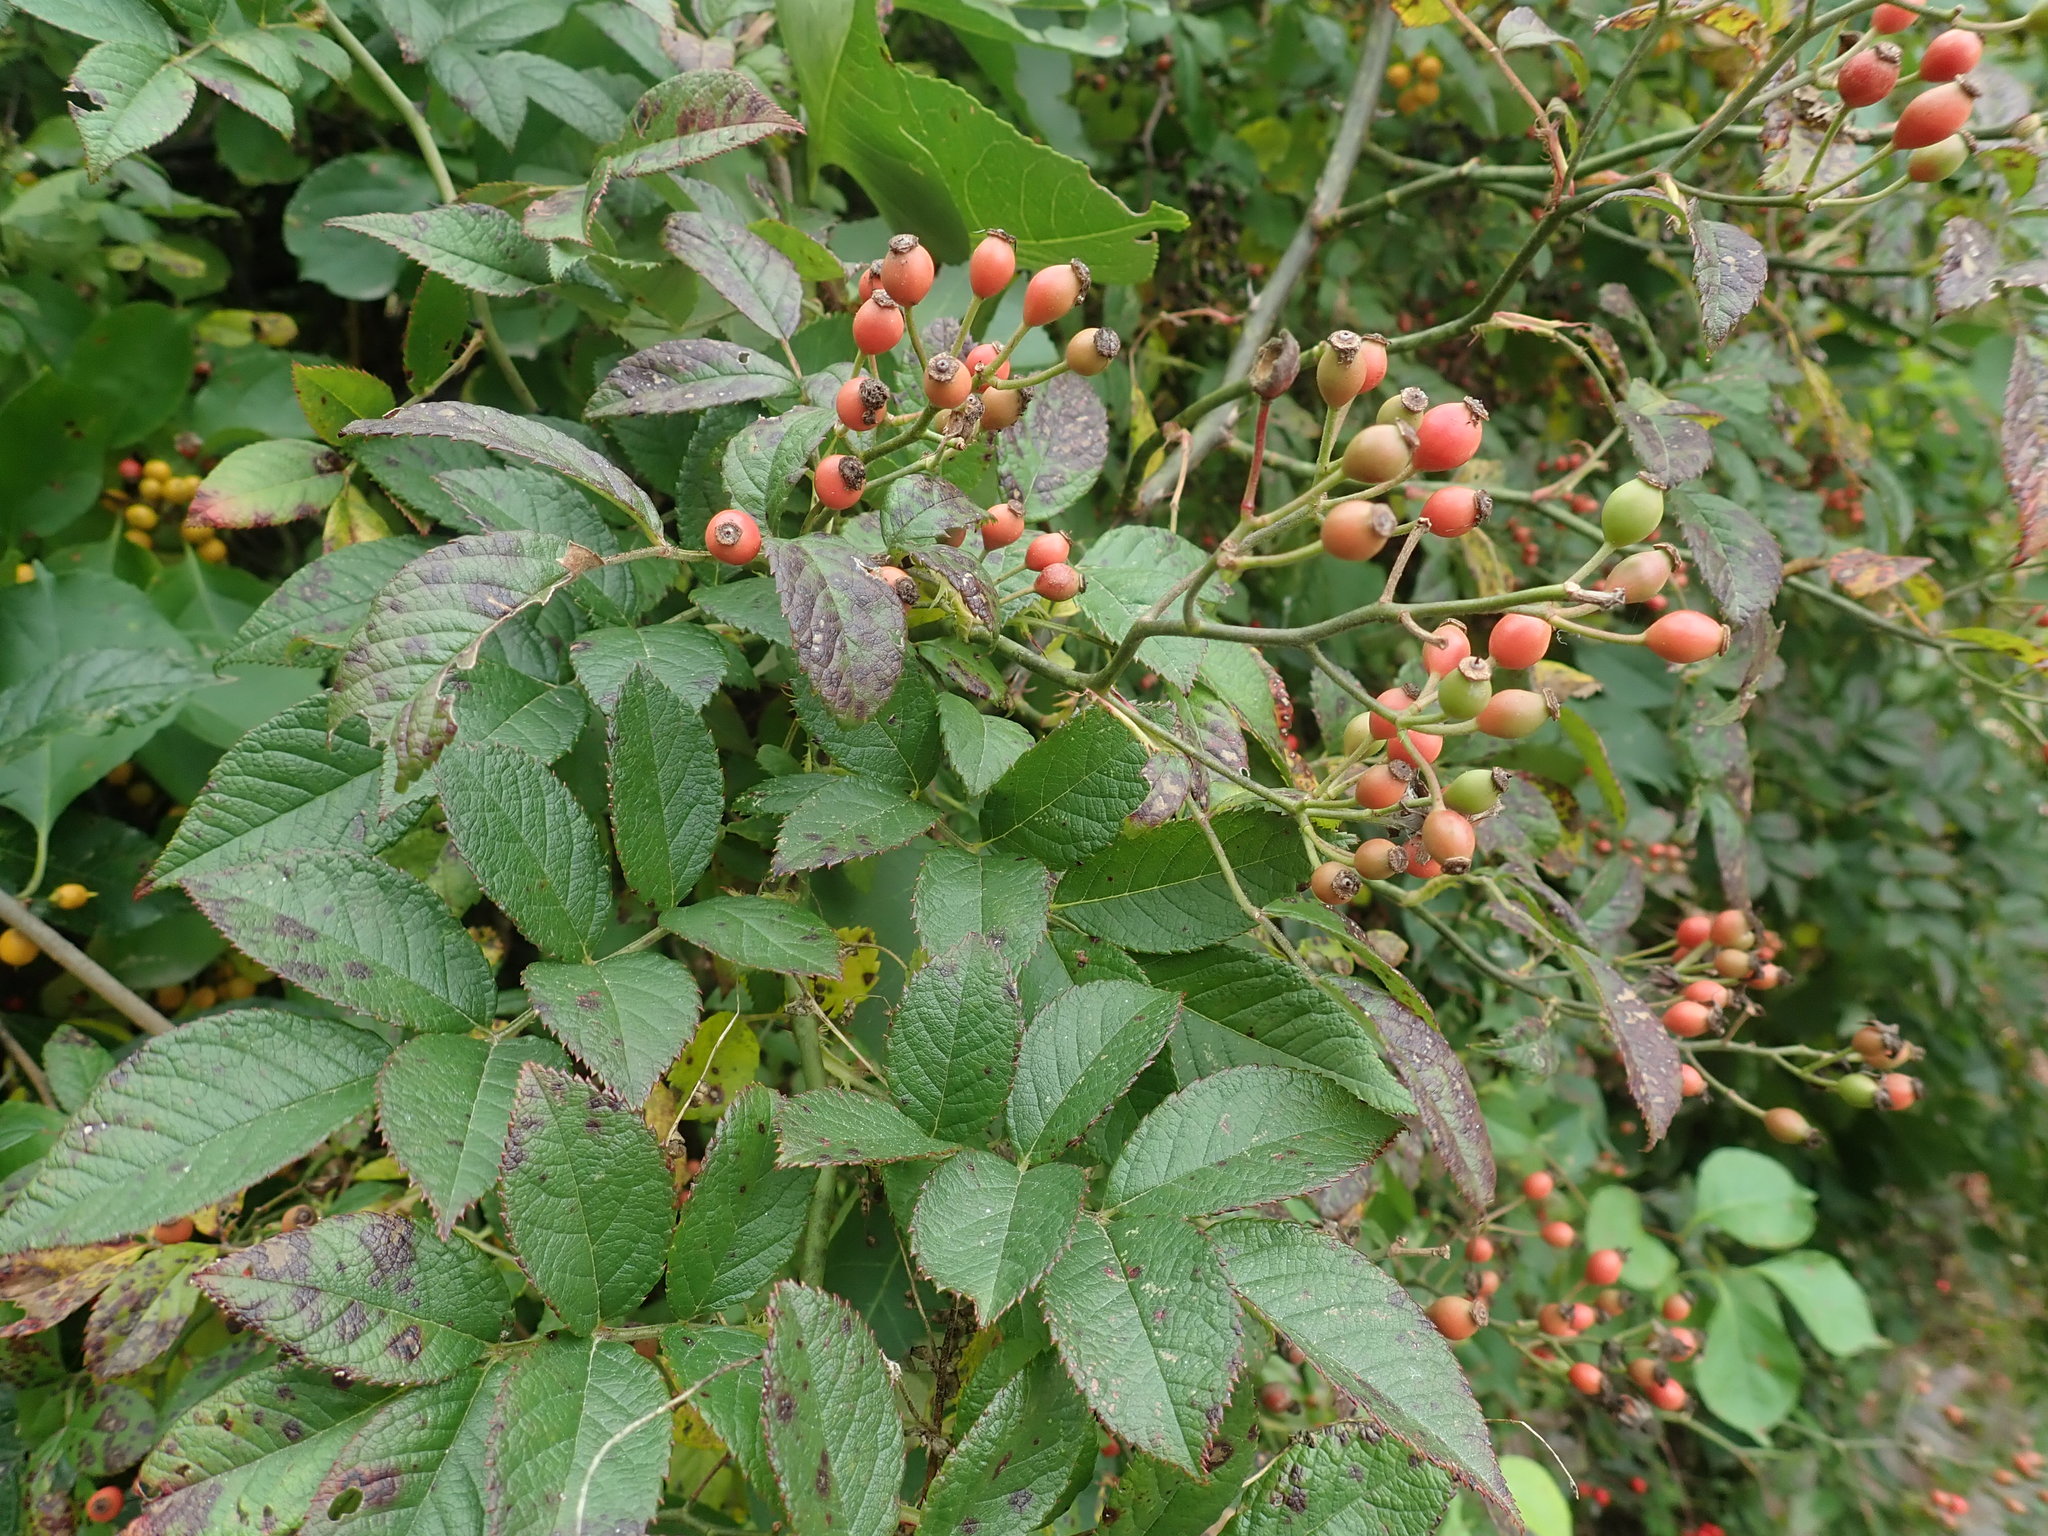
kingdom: Plantae
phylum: Tracheophyta
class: Magnoliopsida
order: Rosales
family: Rosaceae
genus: Rosa
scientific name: Rosa multiflora
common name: Multiflora rose
